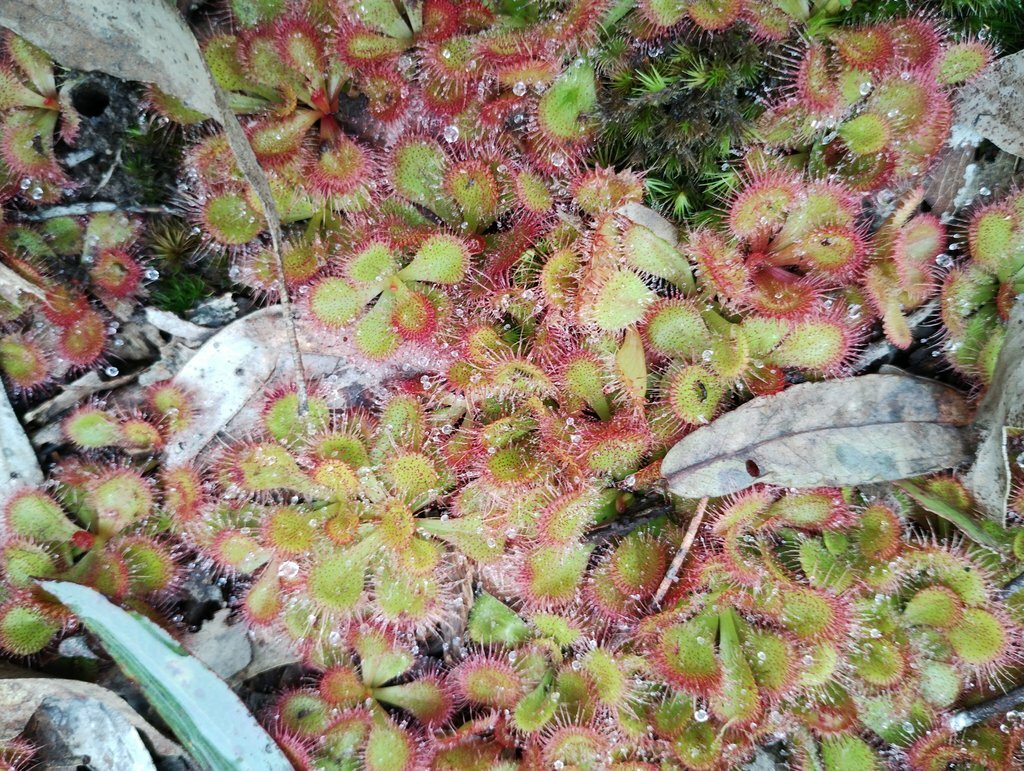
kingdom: Plantae
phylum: Tracheophyta
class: Magnoliopsida
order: Caryophyllales
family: Droseraceae
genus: Drosera
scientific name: Drosera aberrans
